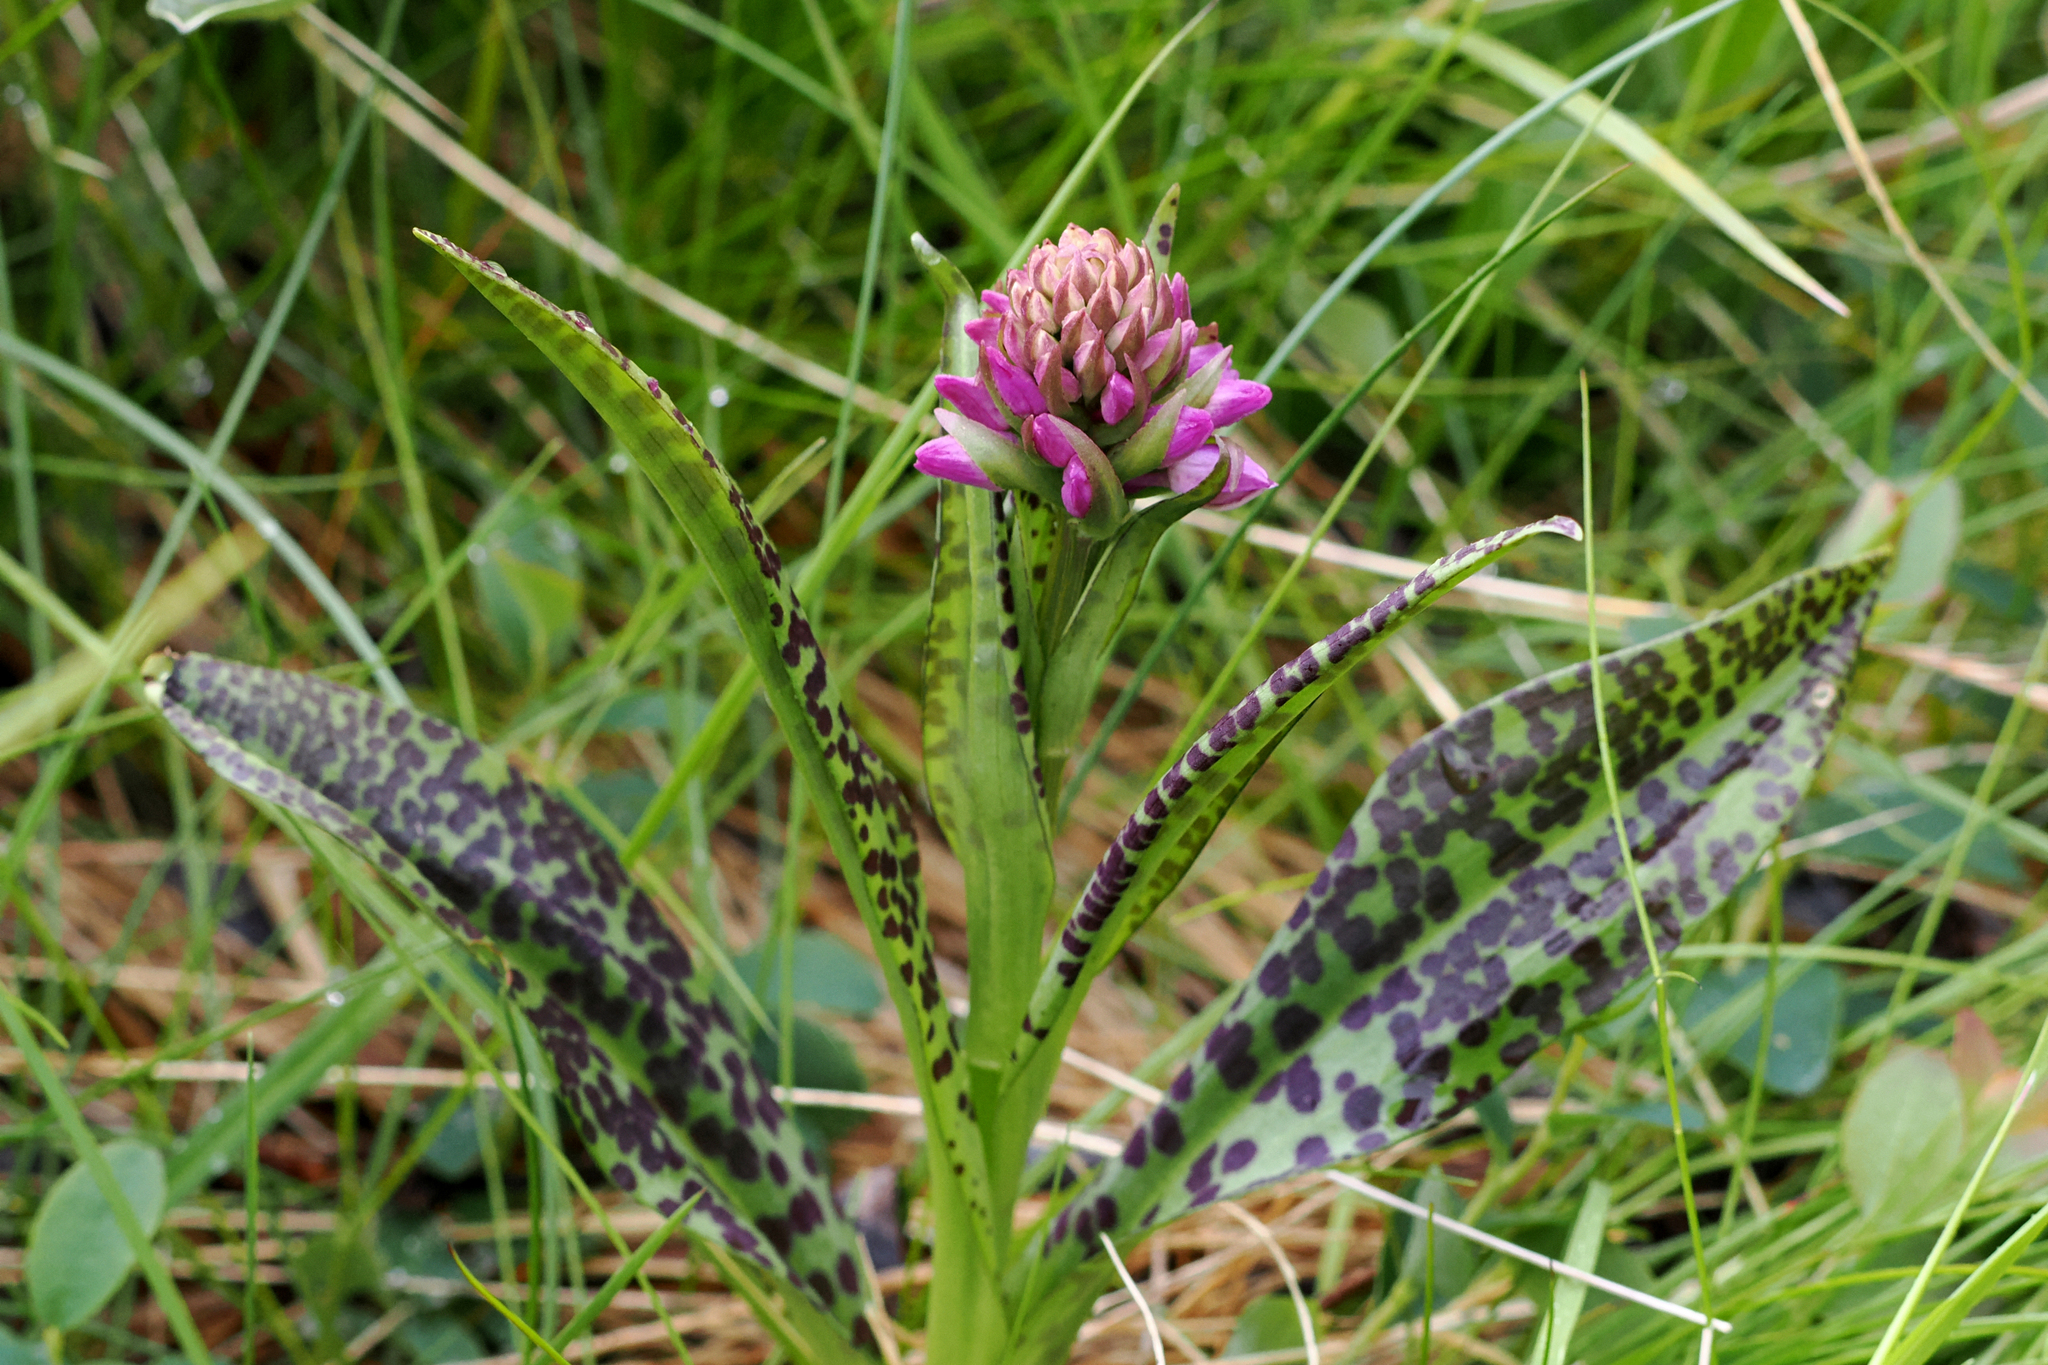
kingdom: Plantae
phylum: Tracheophyta
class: Liliopsida
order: Asparagales
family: Orchidaceae
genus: Dactylorhiza
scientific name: Dactylorhiza maculata
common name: Heath spotted-orchid
